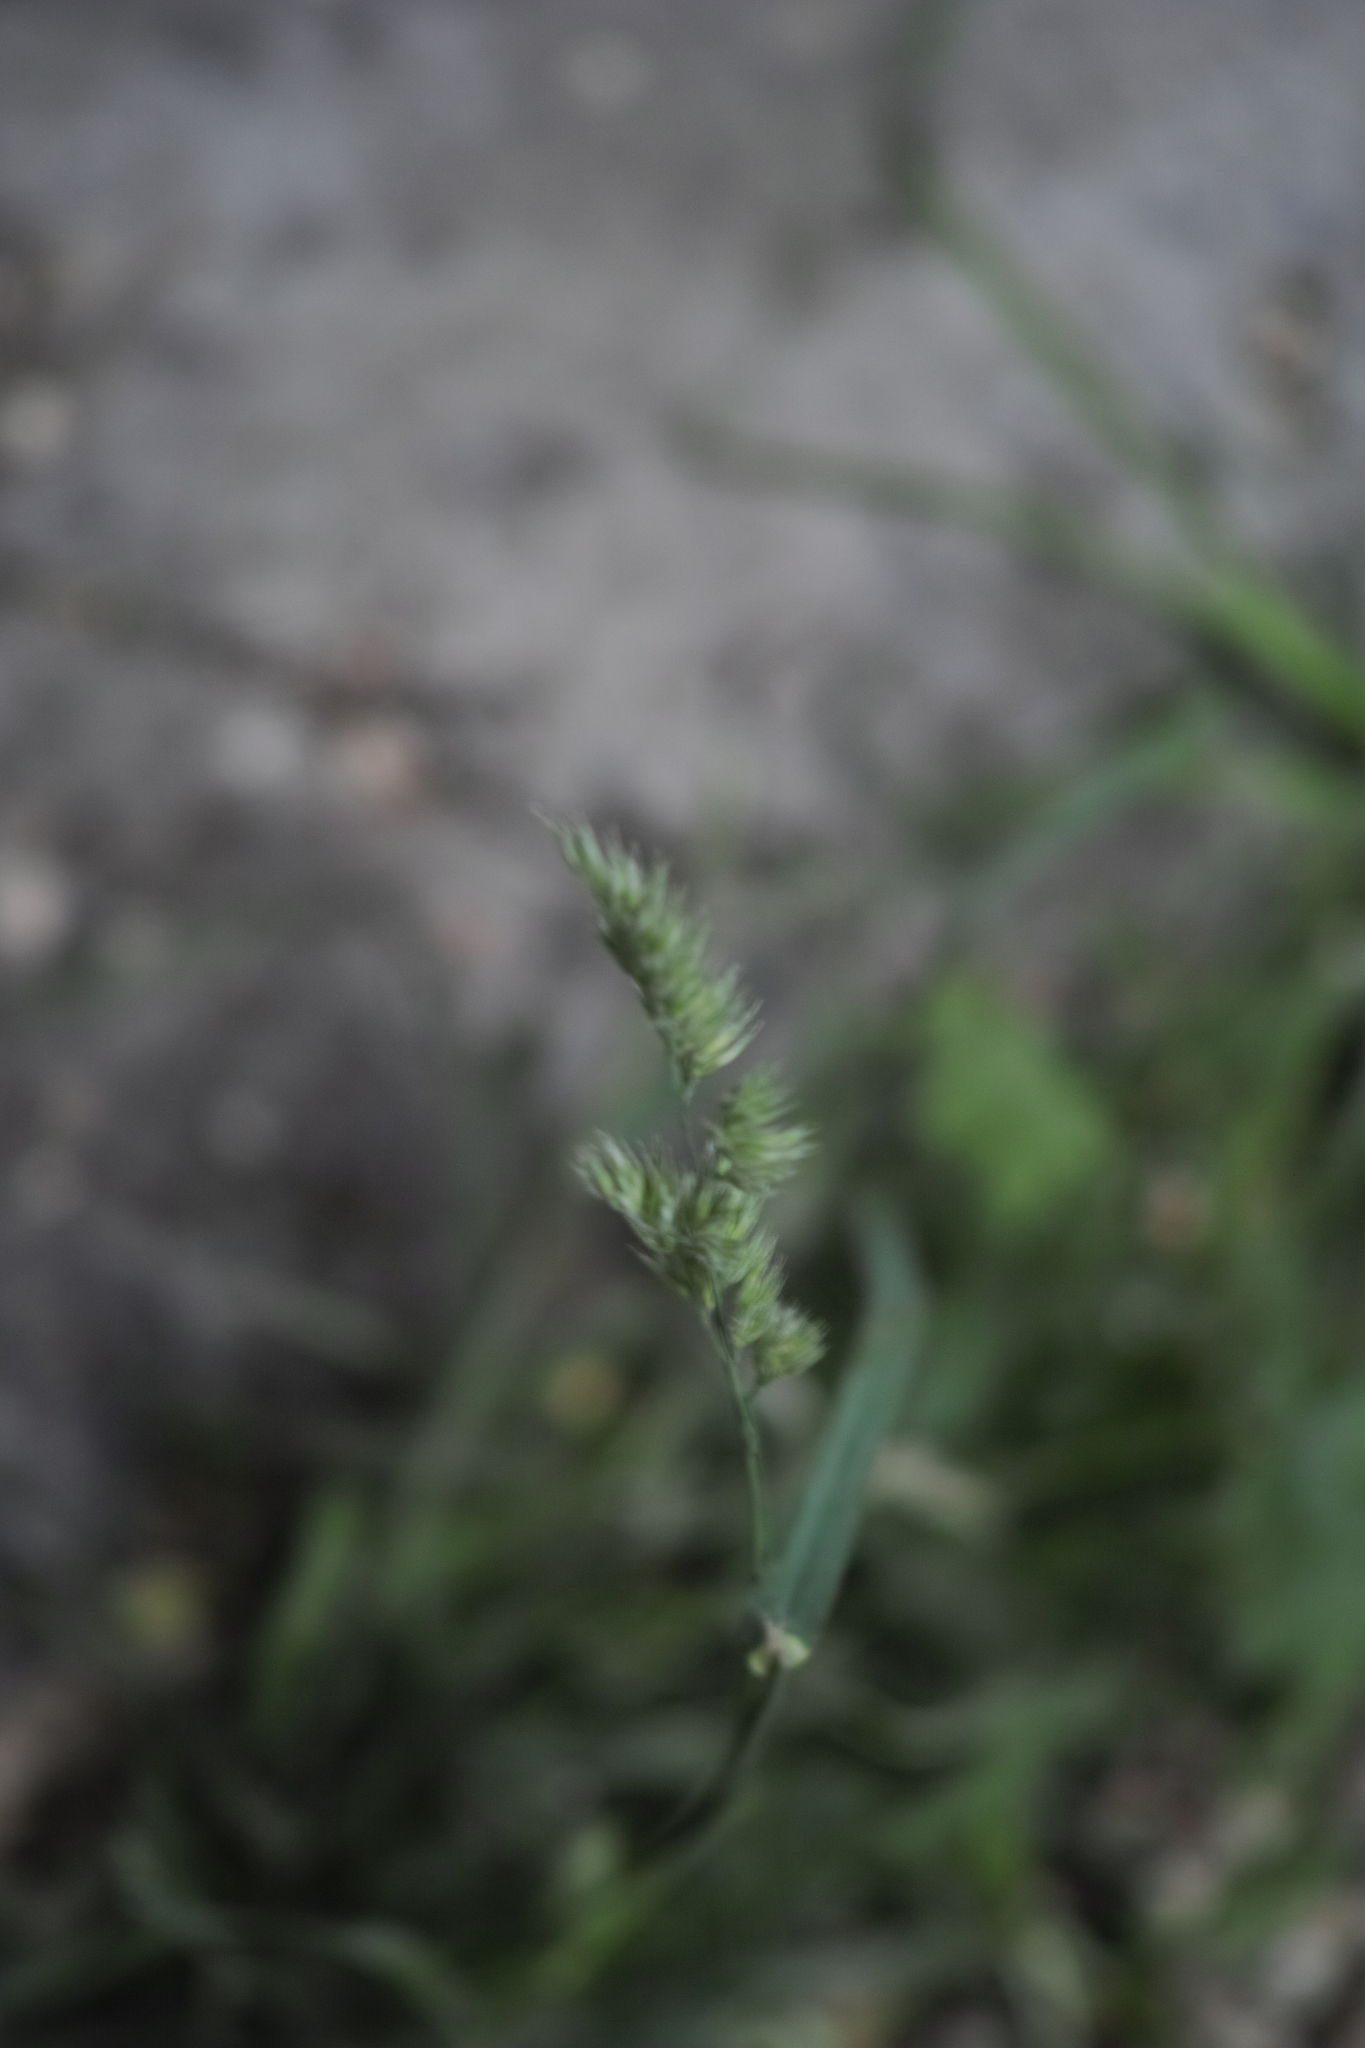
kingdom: Plantae
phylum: Tracheophyta
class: Liliopsida
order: Poales
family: Poaceae
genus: Dactylis
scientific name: Dactylis glomerata
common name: Orchardgrass
